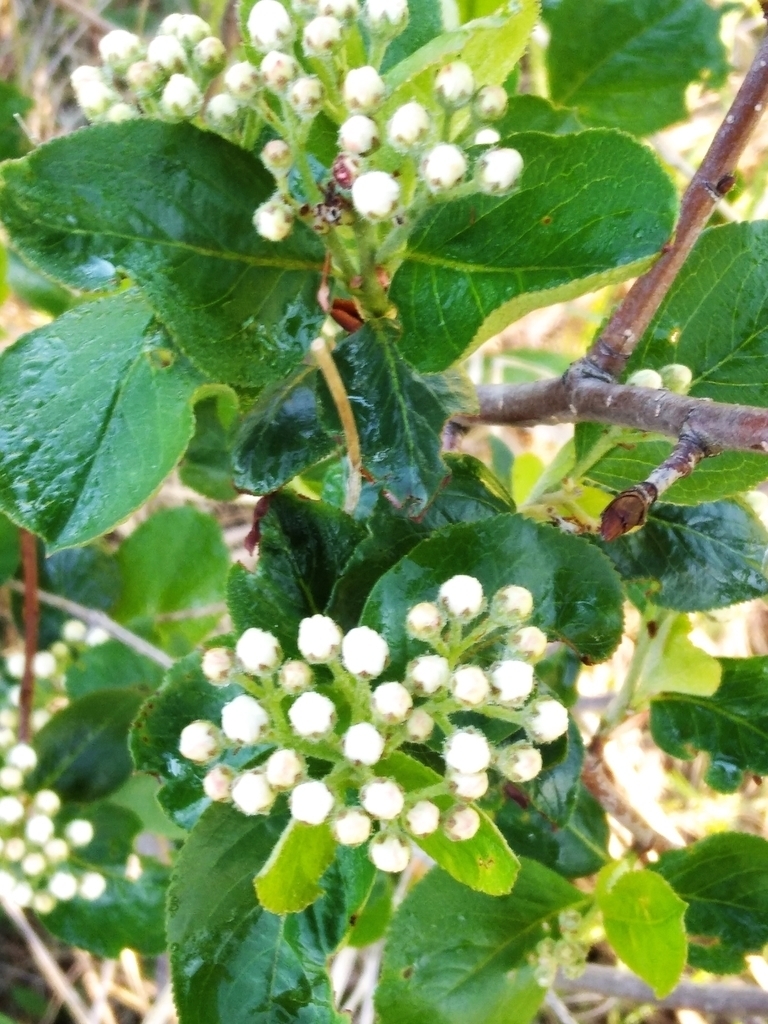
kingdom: Plantae
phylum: Tracheophyta
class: Magnoliopsida
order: Rosales
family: Rosaceae
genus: Sorbaronia
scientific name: Sorbaronia arsenii
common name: Arsène's mountain-ash
